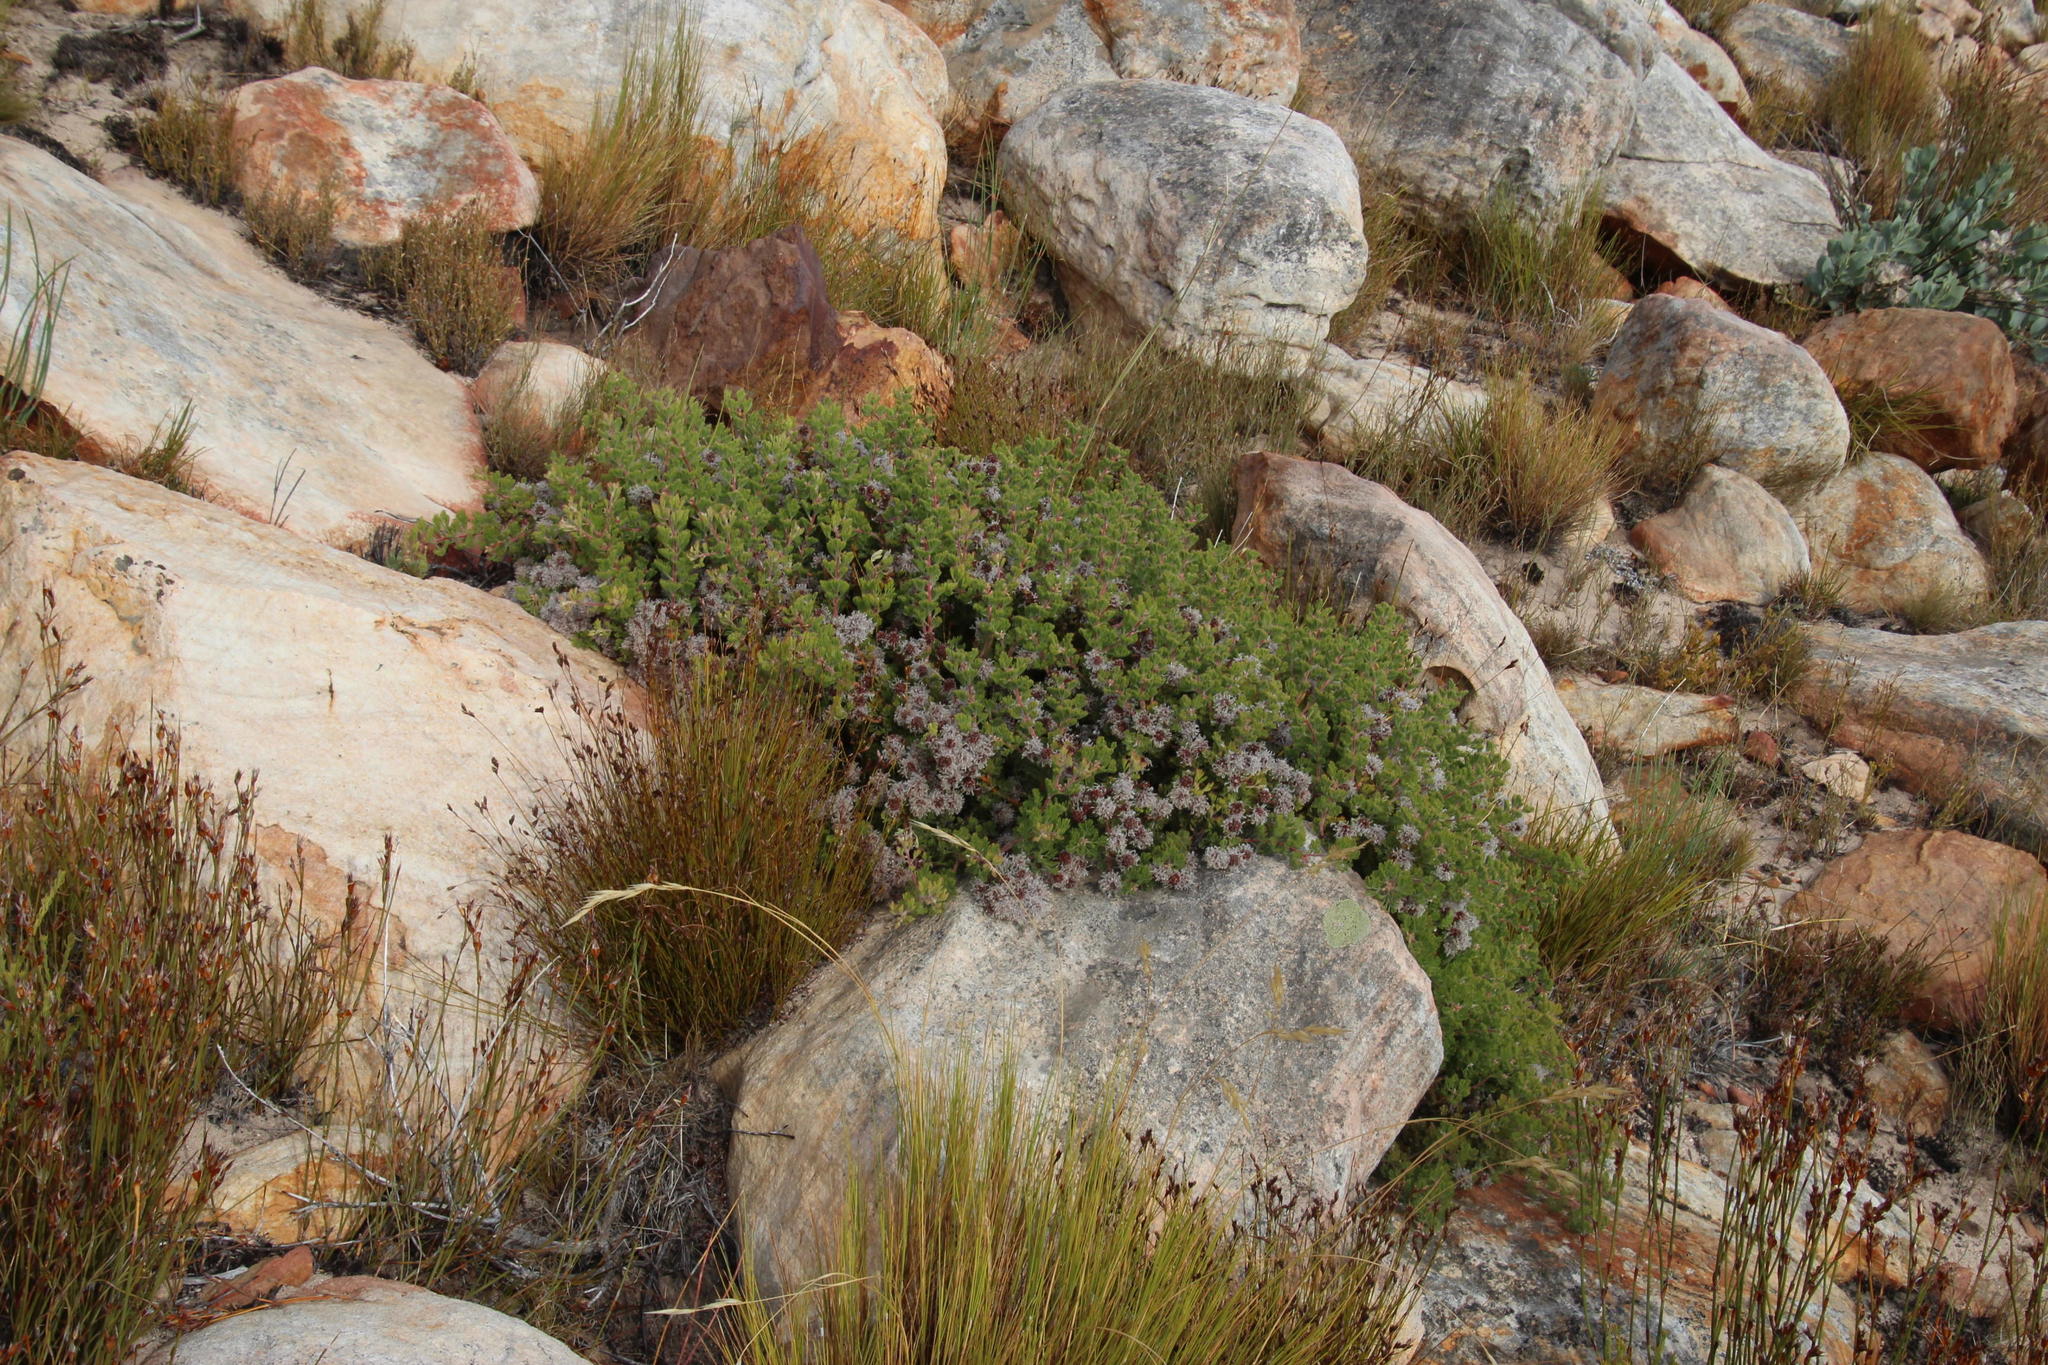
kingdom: Plantae
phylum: Tracheophyta
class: Magnoliopsida
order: Proteales
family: Proteaceae
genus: Serruria
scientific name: Serruria aitonii
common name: Marshmallow spiderhead
